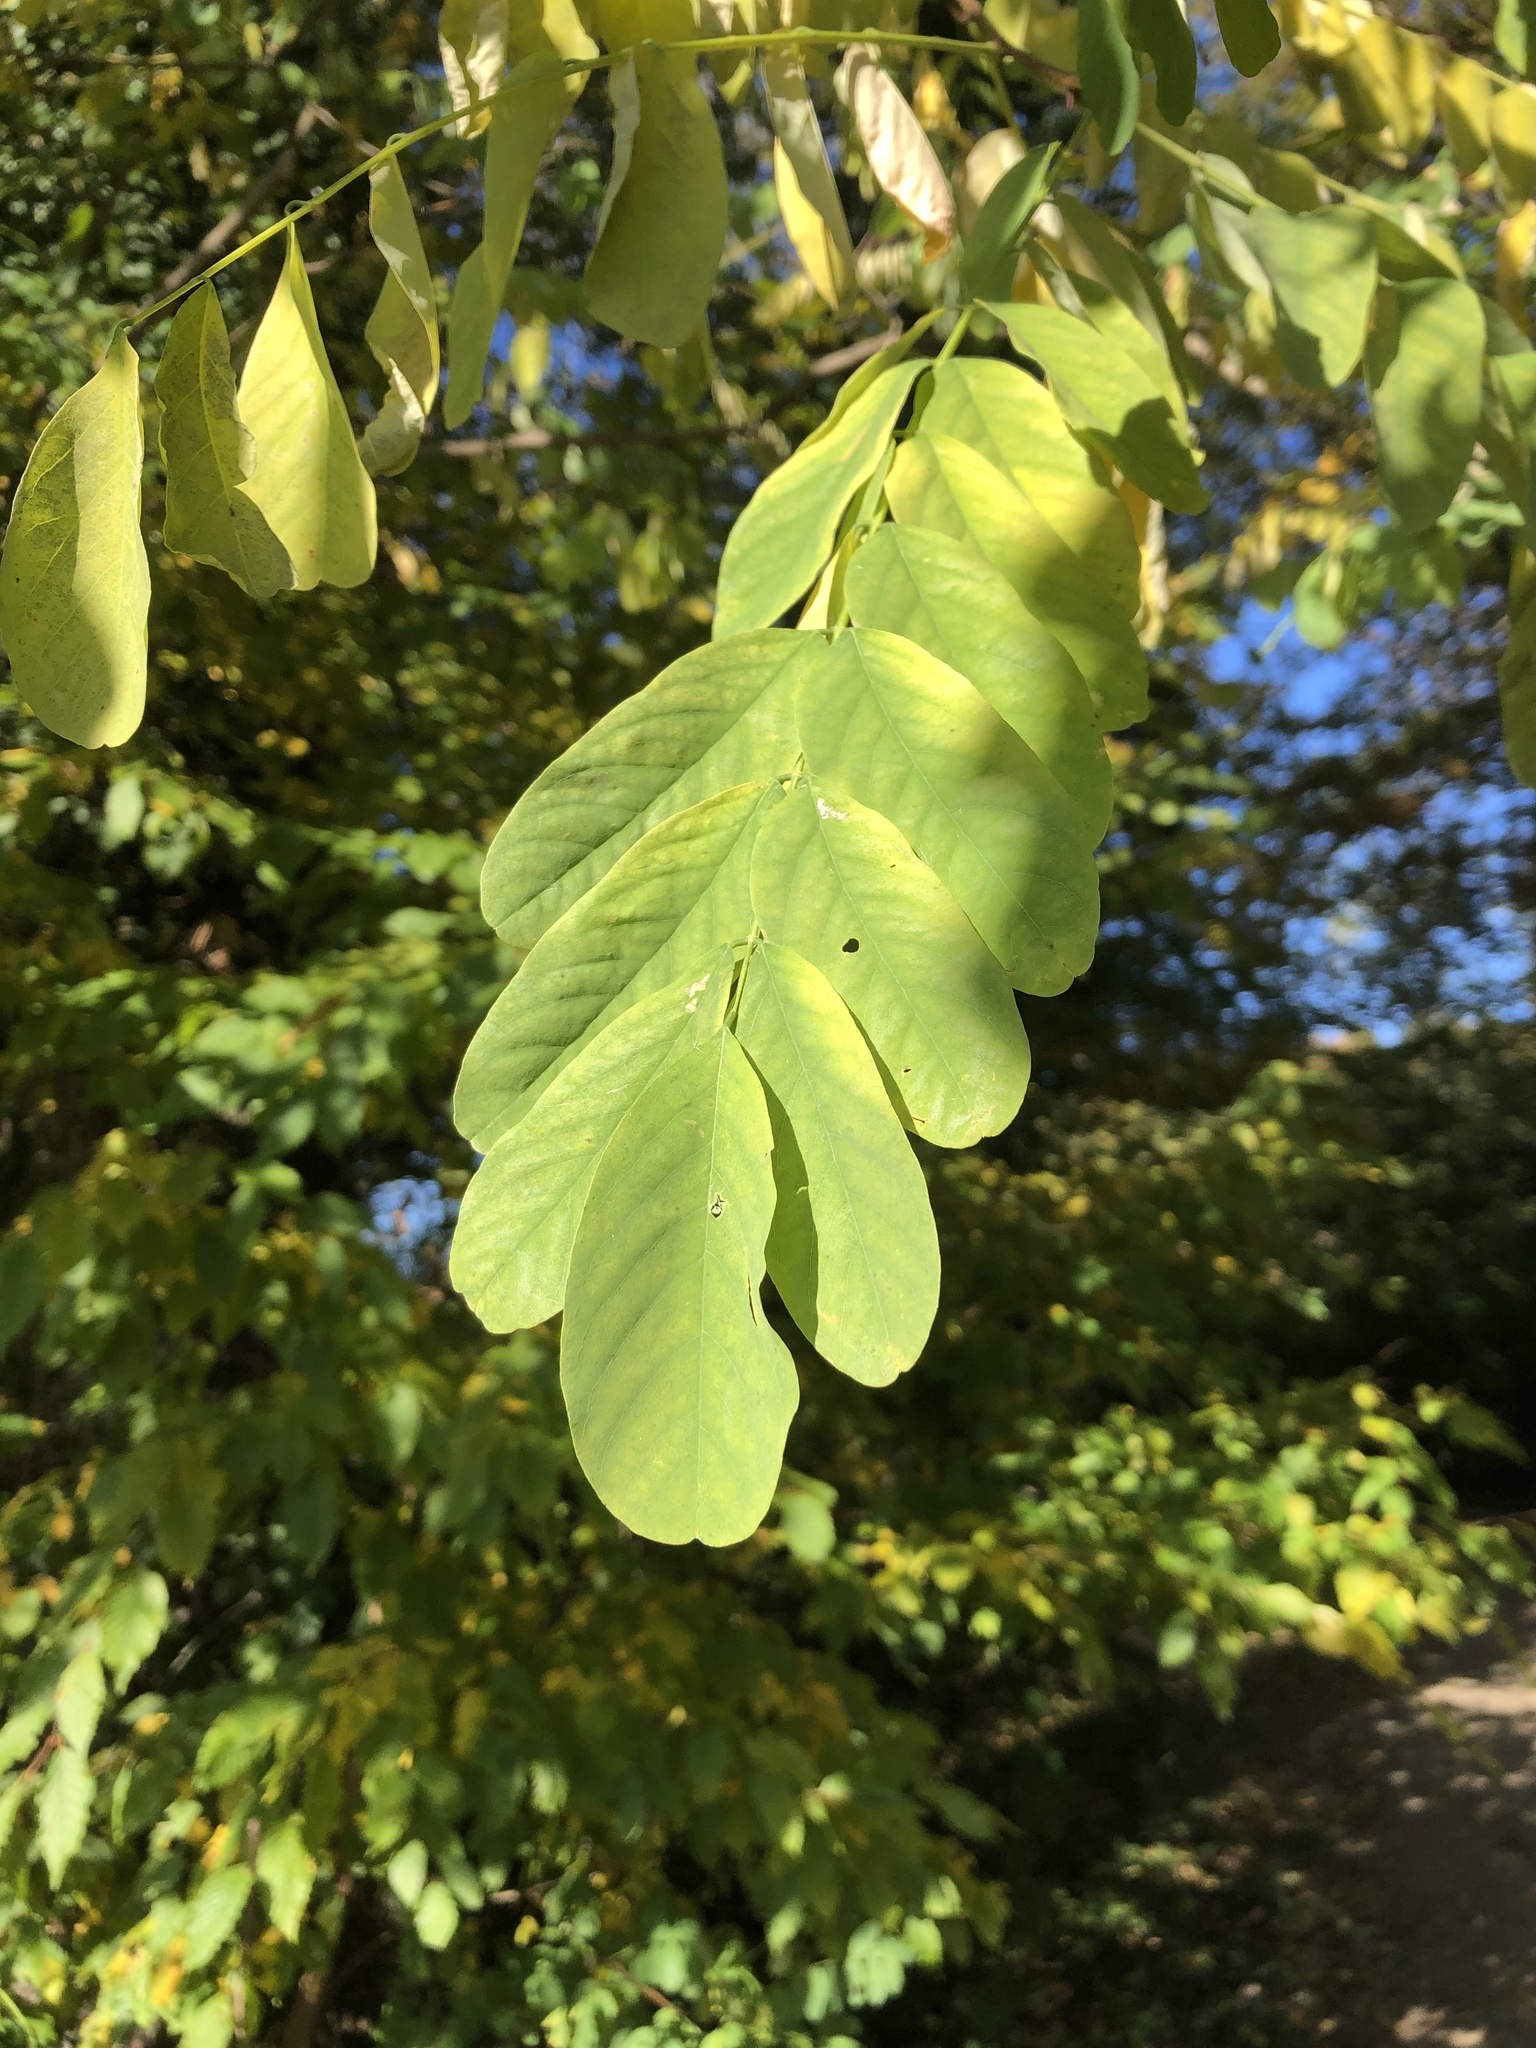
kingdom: Plantae
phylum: Tracheophyta
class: Magnoliopsida
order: Fabales
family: Fabaceae
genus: Robinia
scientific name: Robinia pseudoacacia
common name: Black locust
